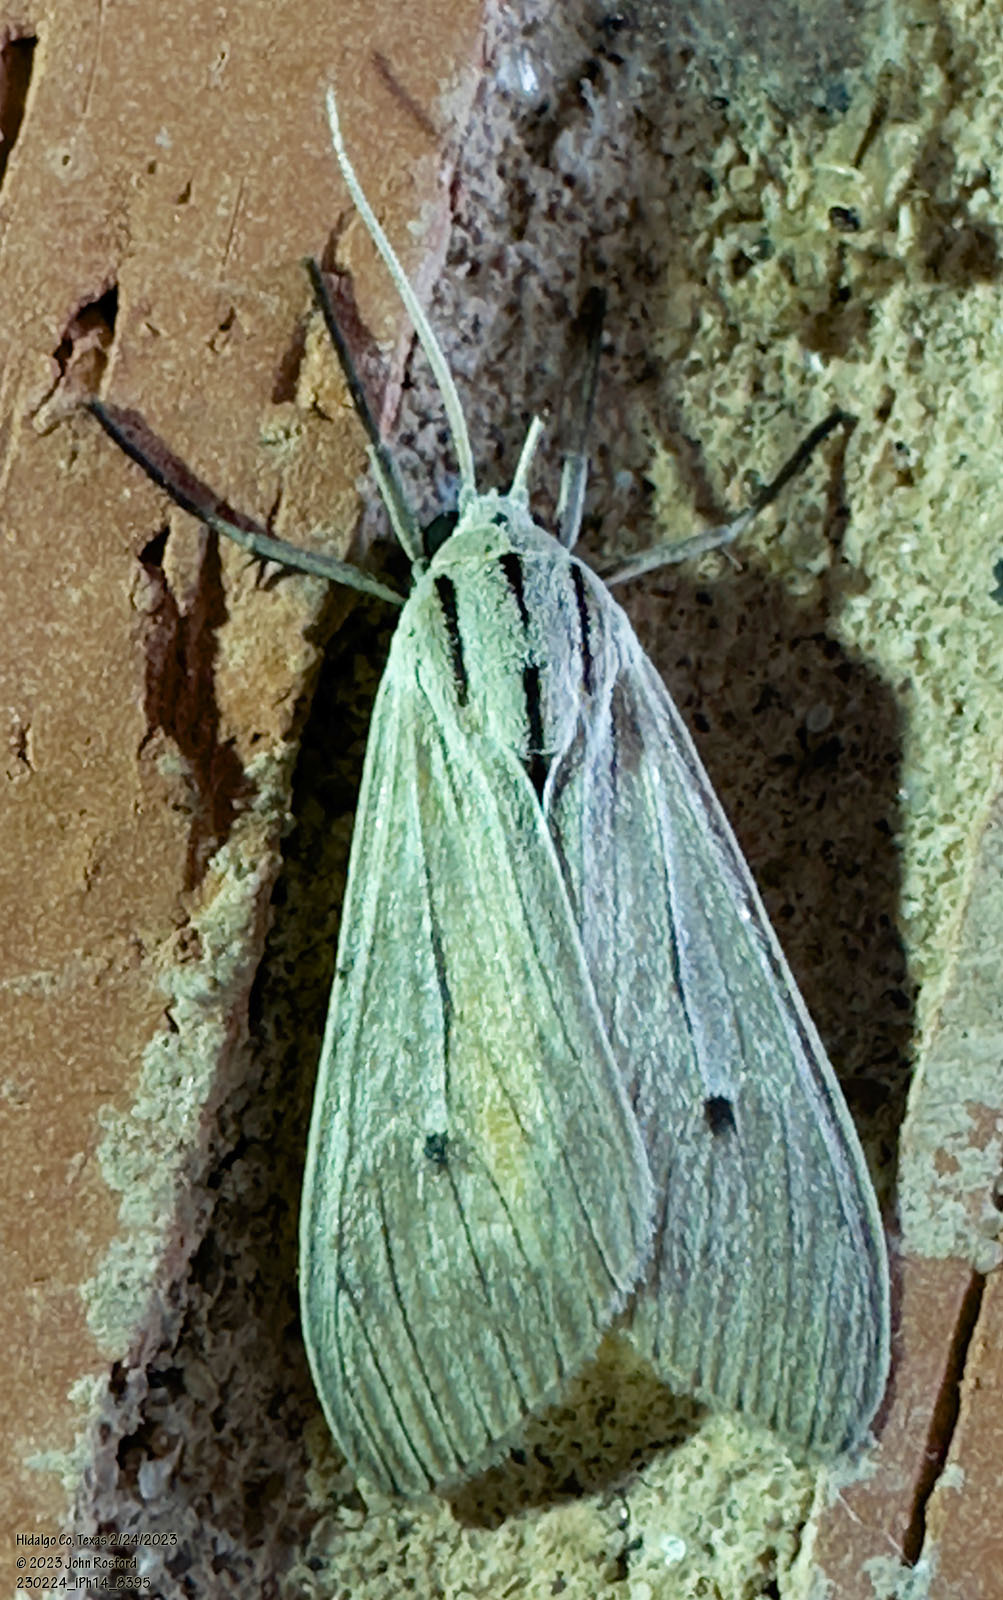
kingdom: Animalia
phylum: Arthropoda
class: Insecta
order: Lepidoptera
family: Erebidae
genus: Arctagyrta
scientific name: Arctagyrta Agaraea semivitrea
